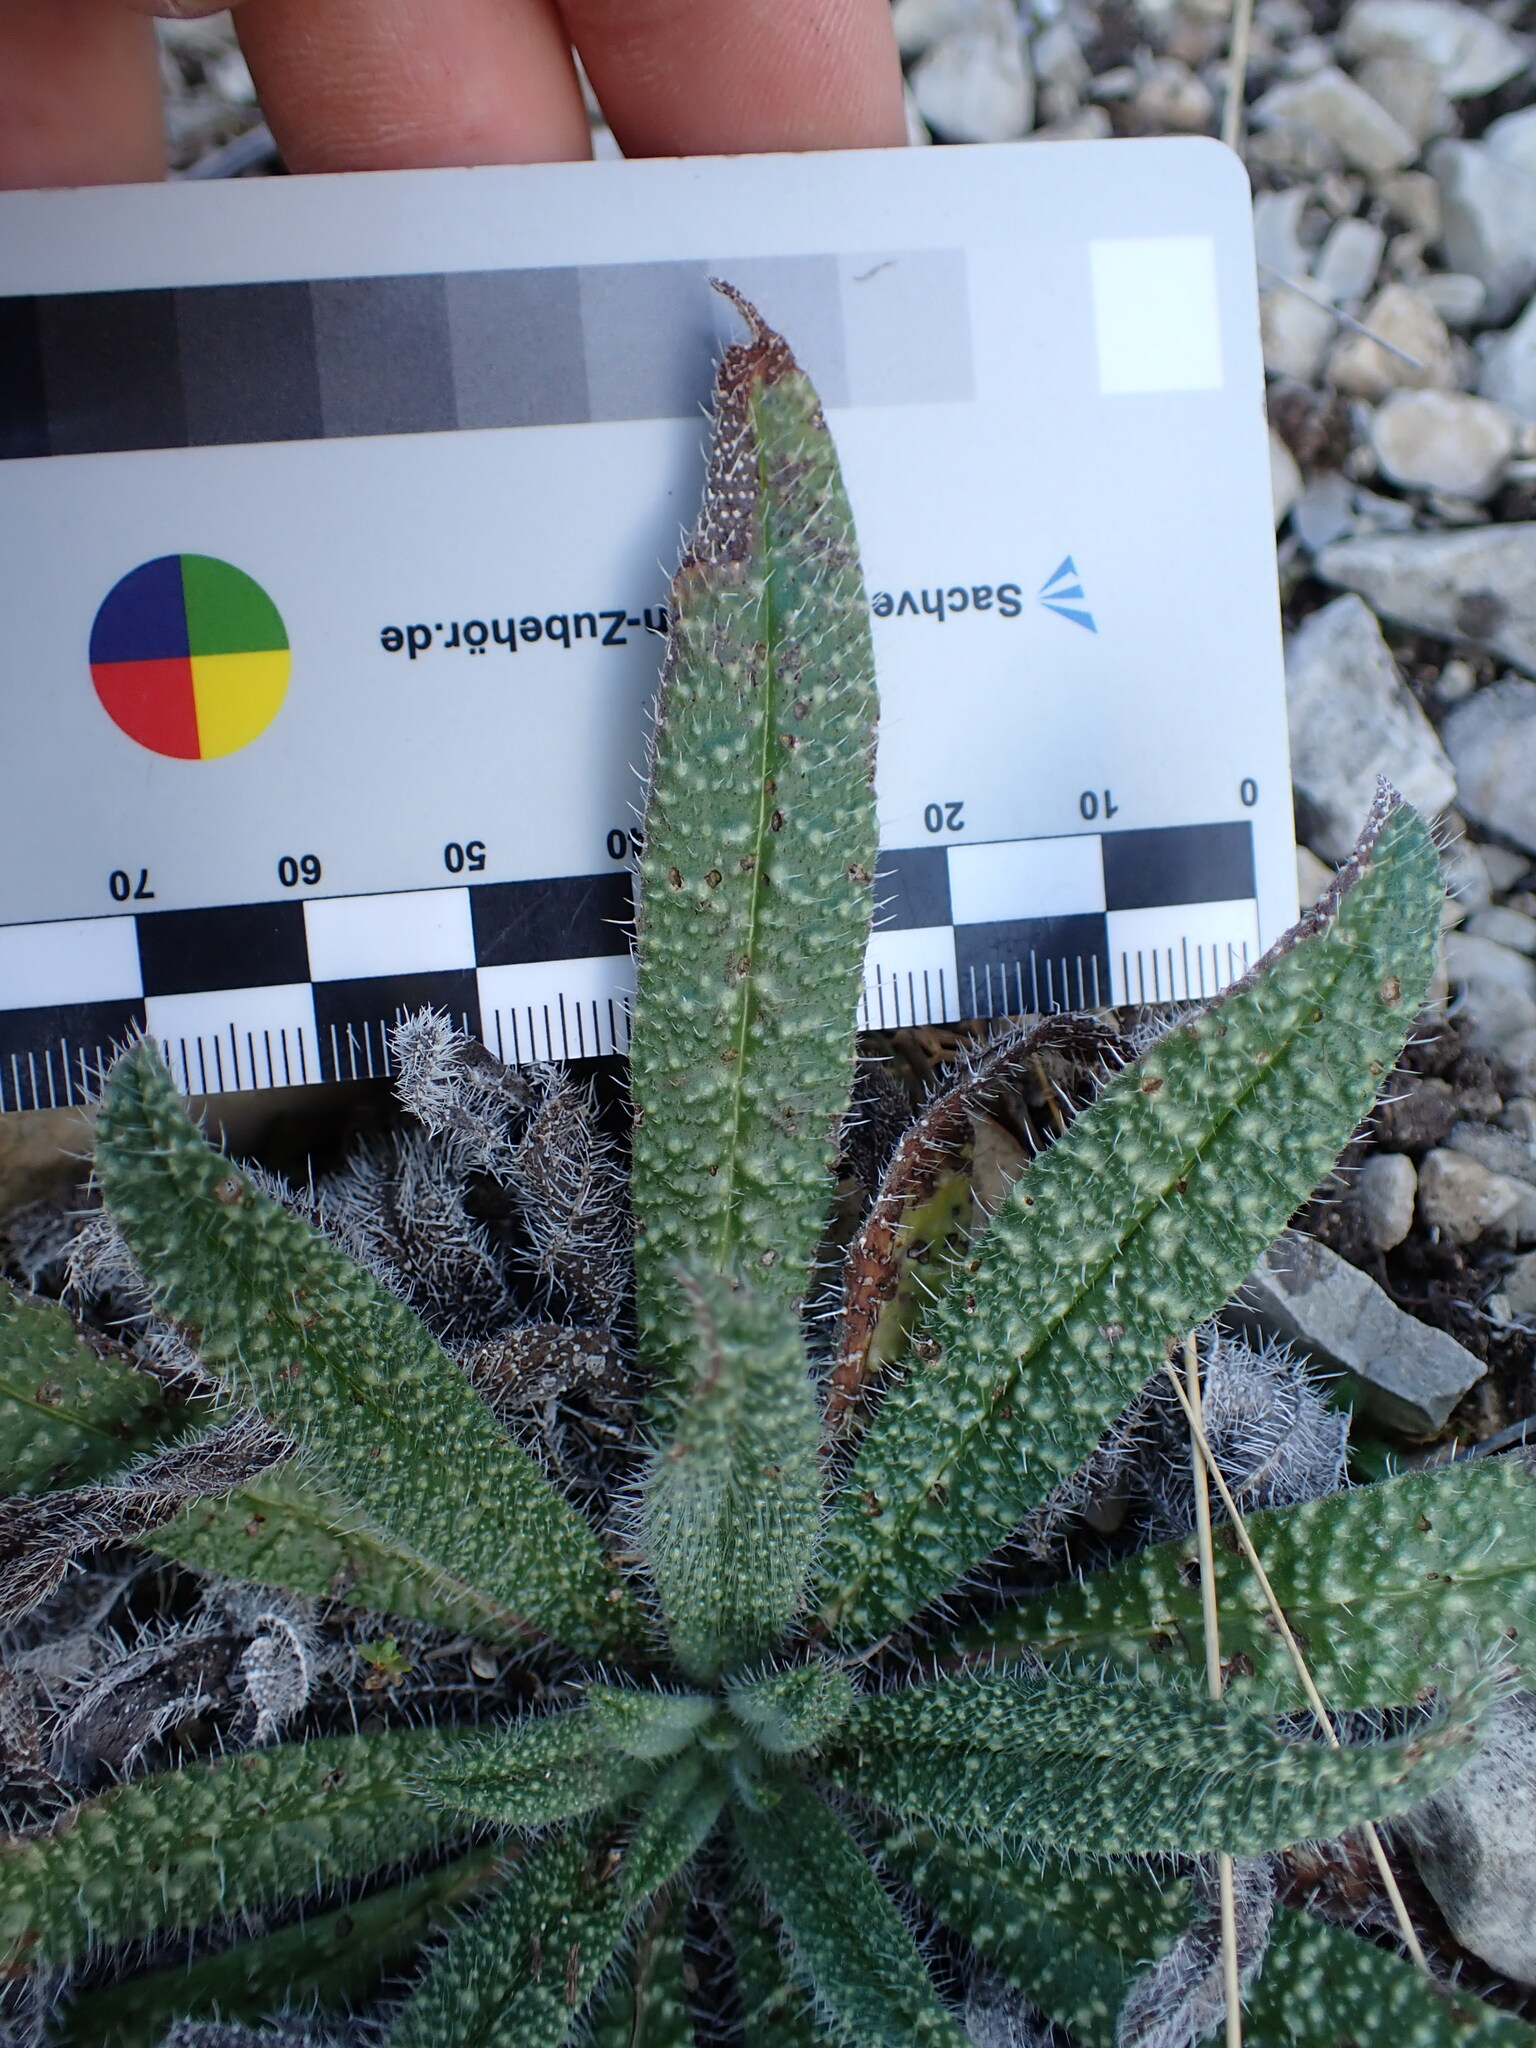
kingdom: Plantae
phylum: Tracheophyta
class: Magnoliopsida
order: Boraginales
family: Boraginaceae
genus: Echium
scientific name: Echium vulgare
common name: Common viper's bugloss
